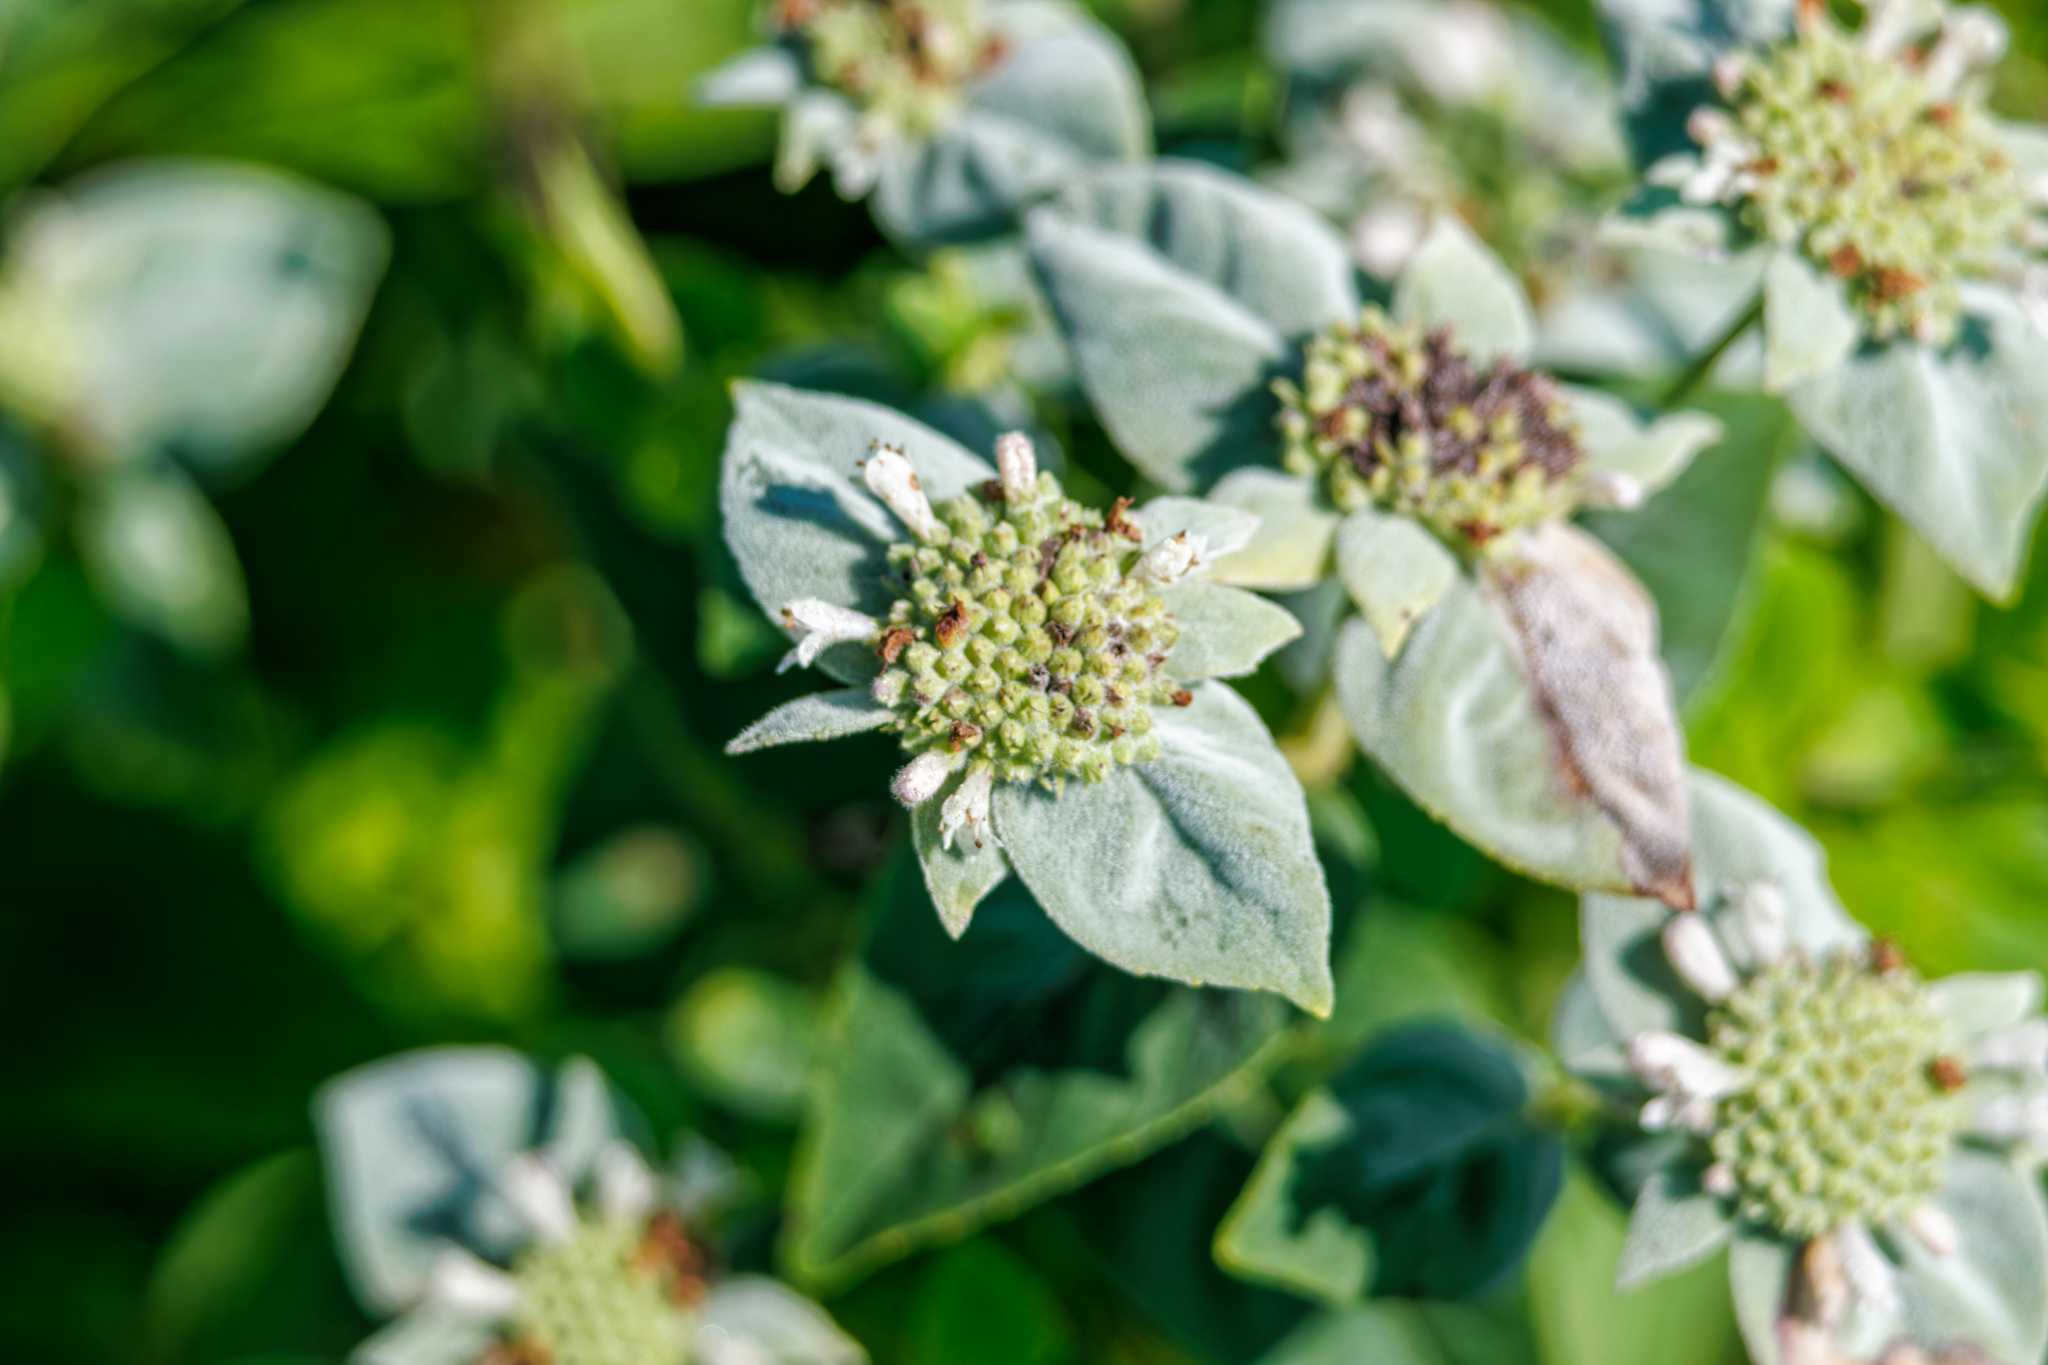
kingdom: Plantae
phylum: Tracheophyta
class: Magnoliopsida
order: Lamiales
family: Lamiaceae
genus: Pycnanthemum
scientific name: Pycnanthemum muticum
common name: Blunt mountain-mint
